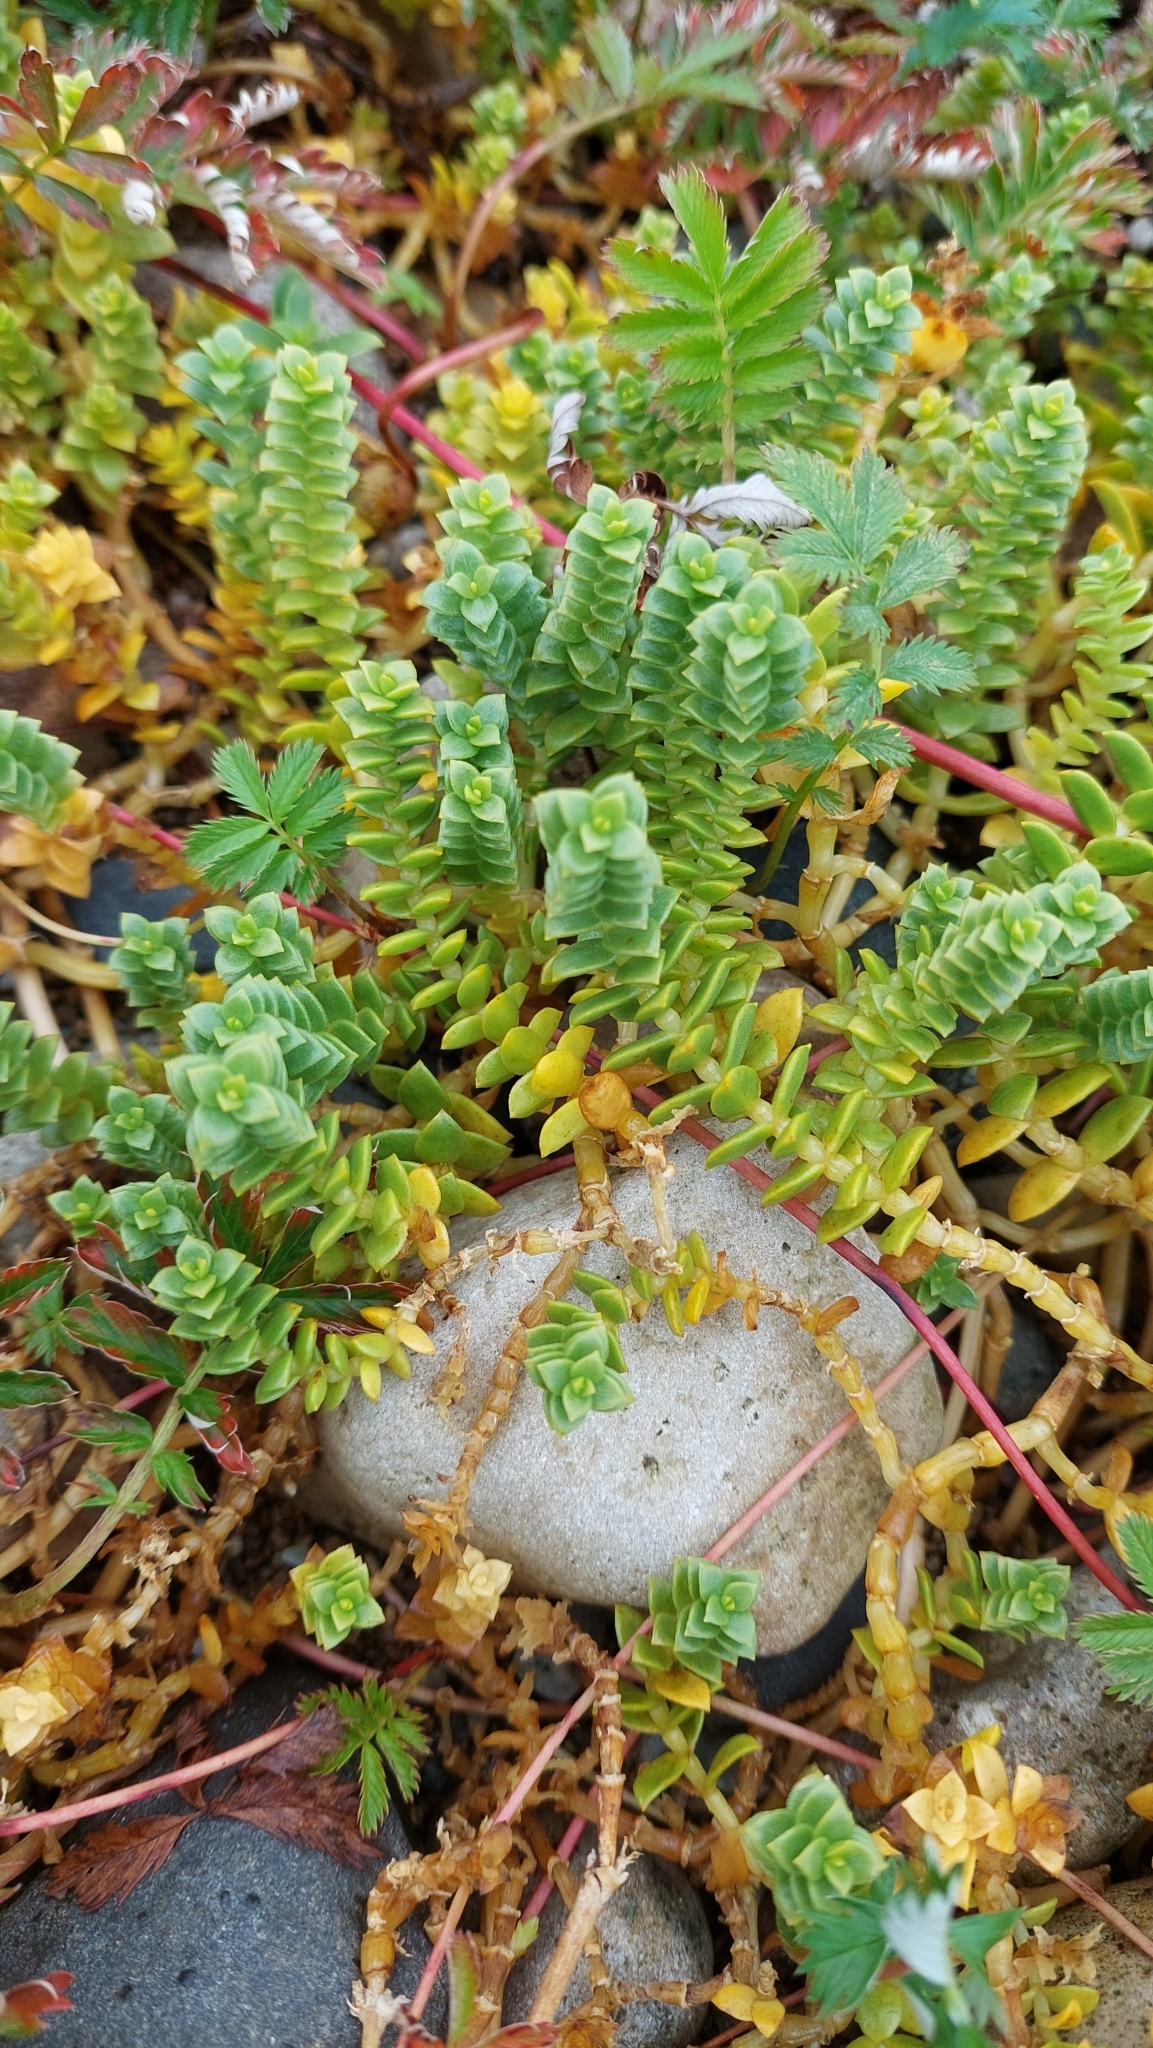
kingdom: Plantae
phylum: Tracheophyta
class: Magnoliopsida
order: Caryophyllales
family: Caryophyllaceae
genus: Honckenya
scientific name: Honckenya peploides
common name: Sea sandwort
